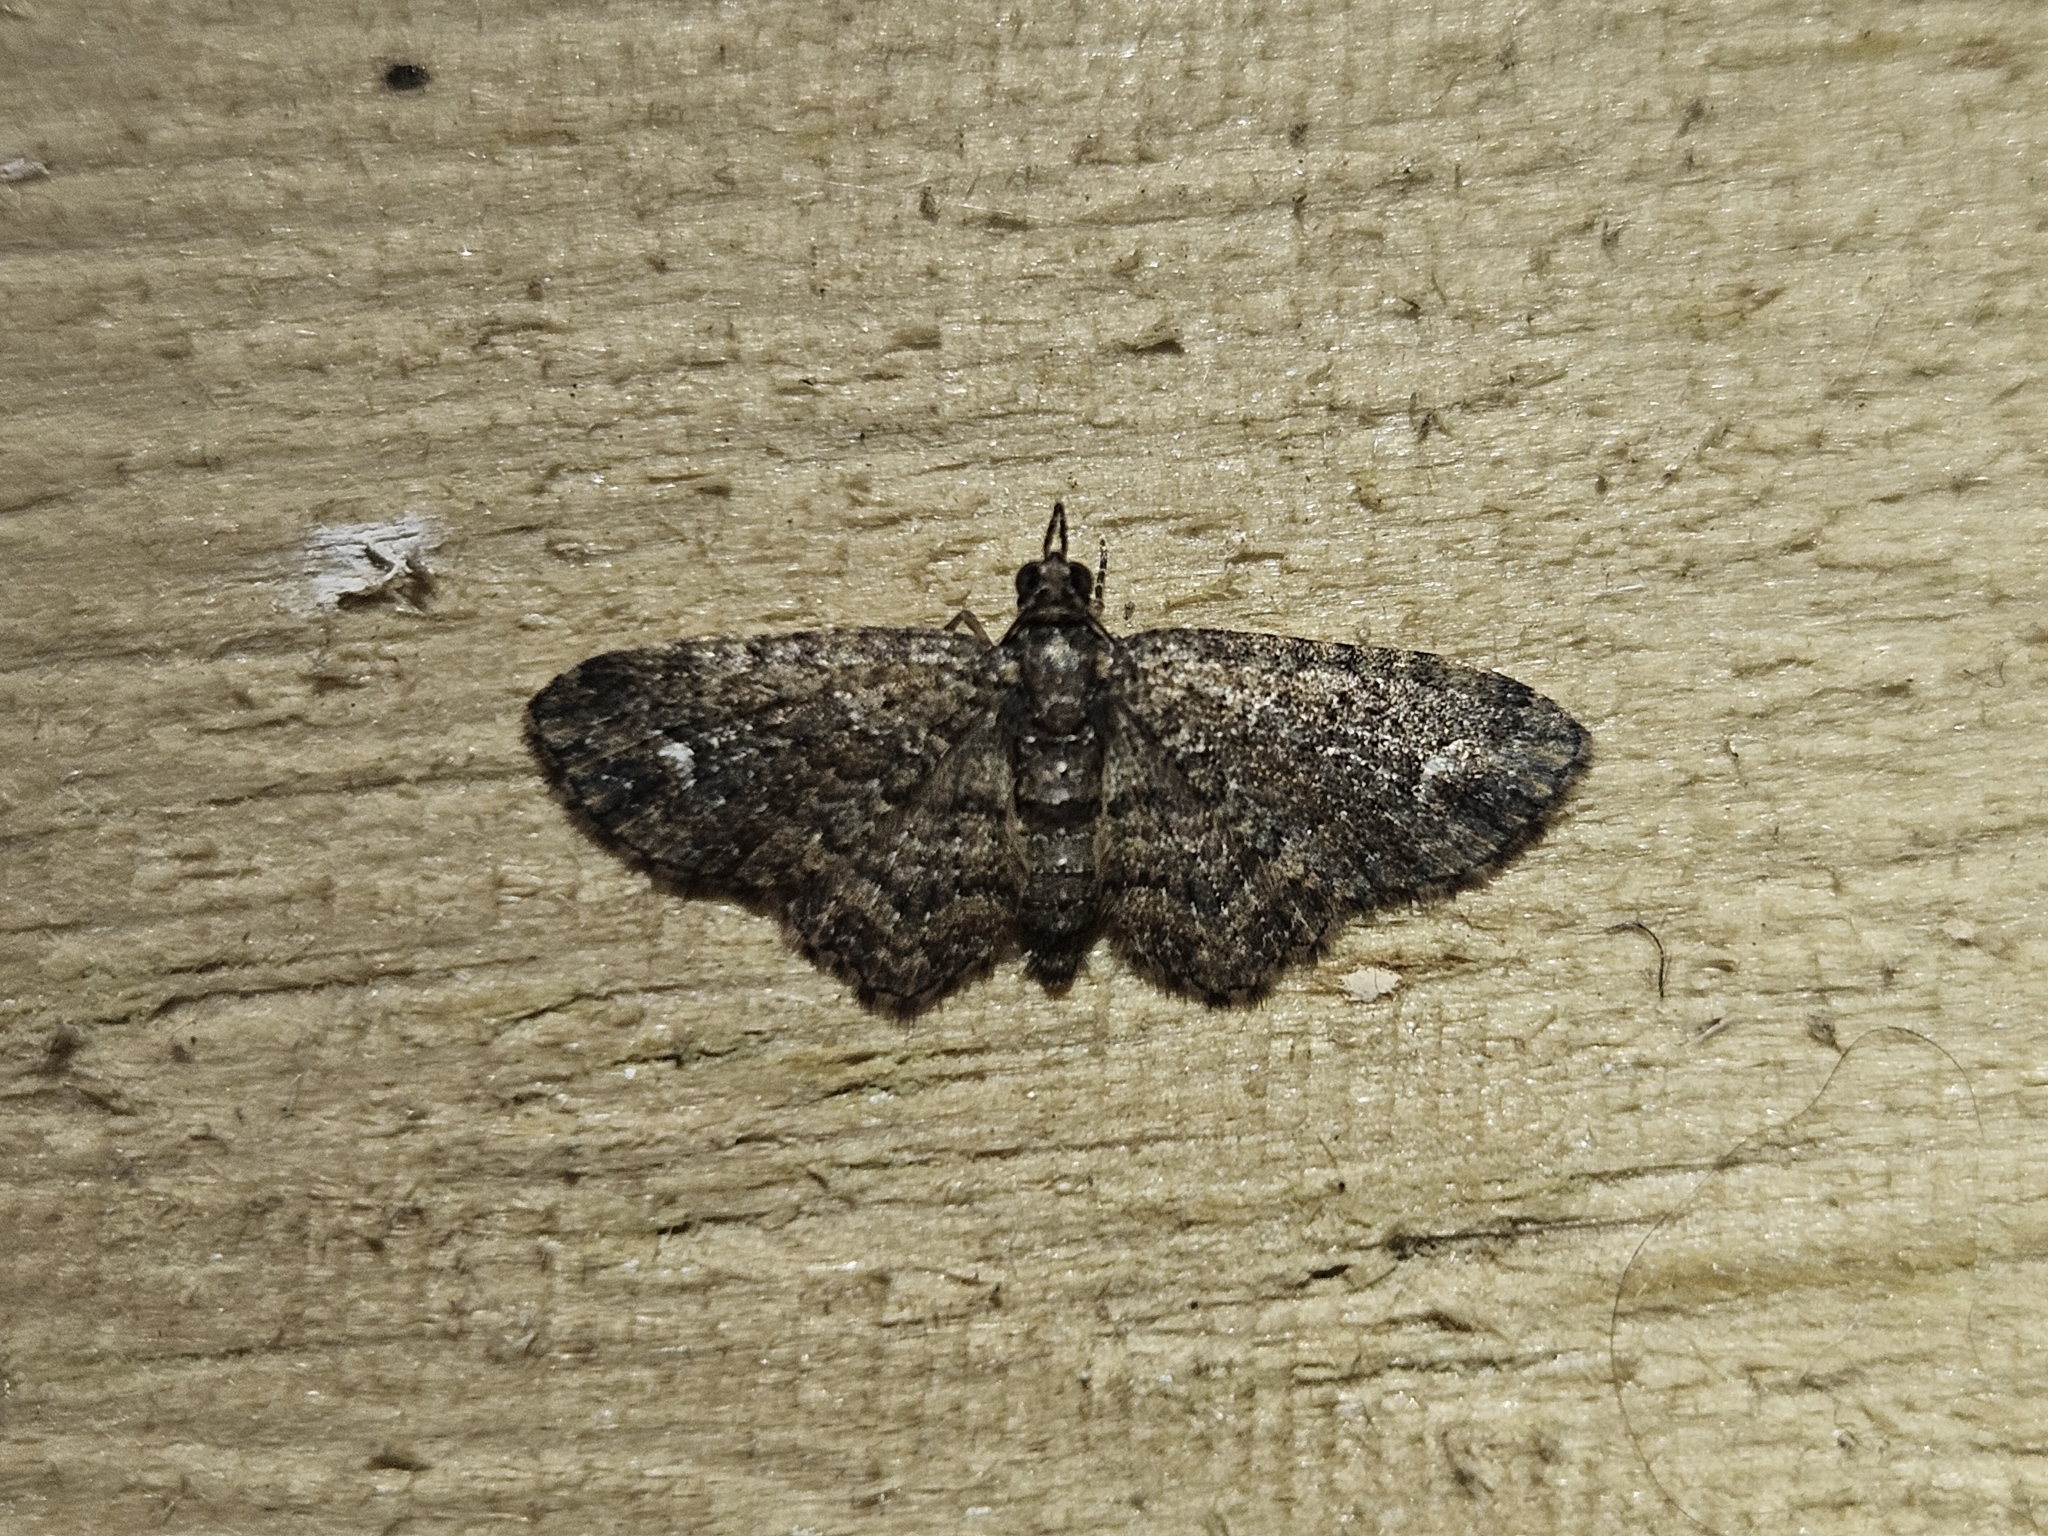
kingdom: Animalia
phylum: Arthropoda
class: Insecta
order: Lepidoptera
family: Geometridae
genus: Pasiphilodes
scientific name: Pasiphilodes testulata
